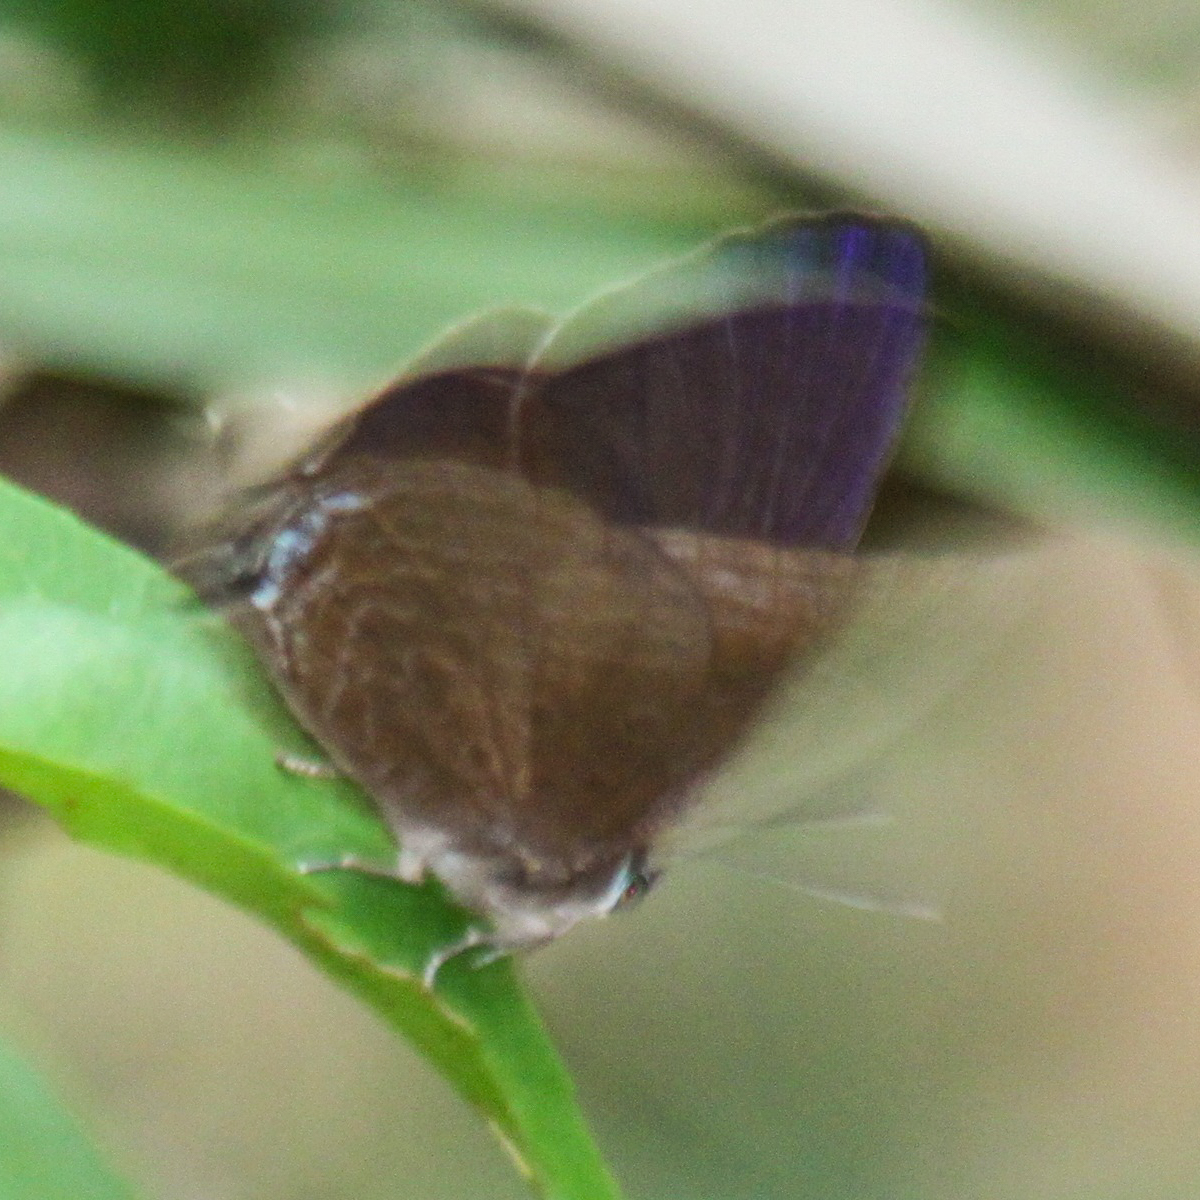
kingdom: Animalia
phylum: Arthropoda
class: Insecta
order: Lepidoptera
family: Lycaenidae
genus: Arhopala
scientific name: Arhopala agrata
